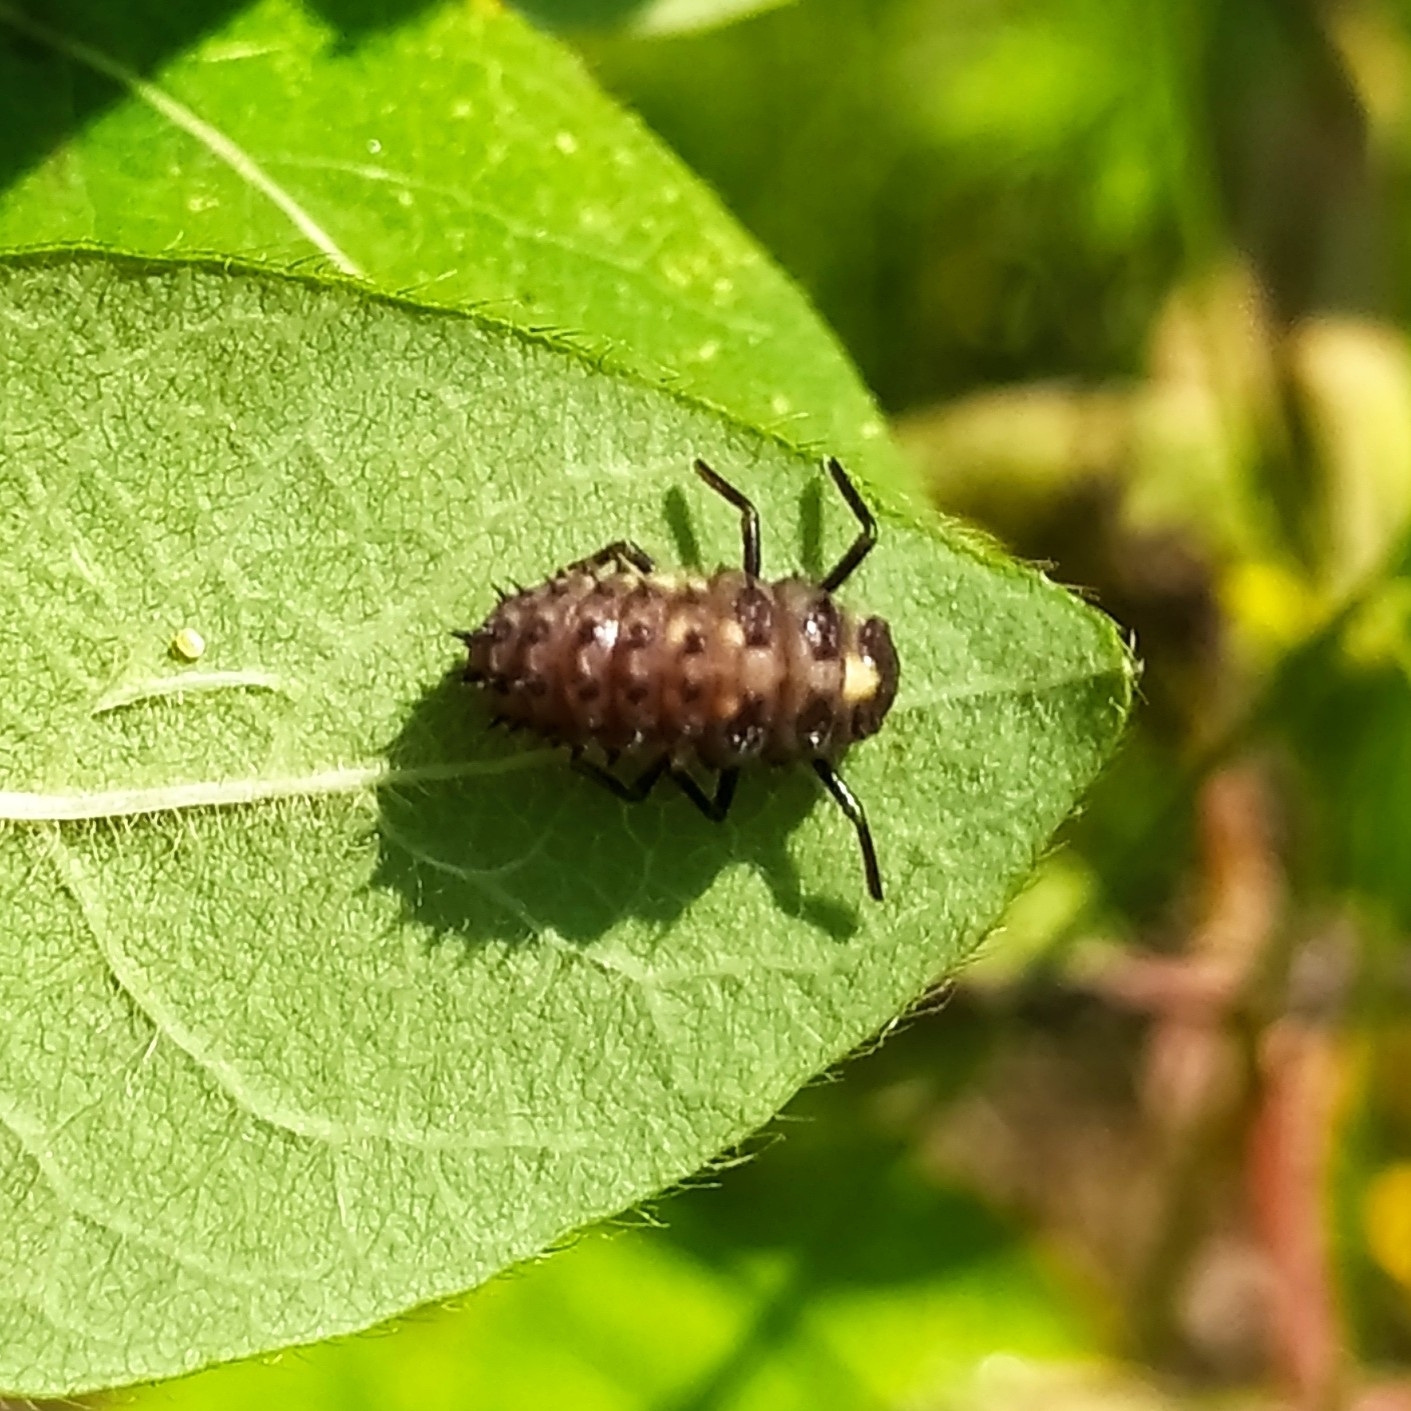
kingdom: Animalia
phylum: Arthropoda
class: Insecta
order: Coleoptera
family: Coccinellidae
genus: Anatis
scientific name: Anatis ocellata
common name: Eyed ladybird
